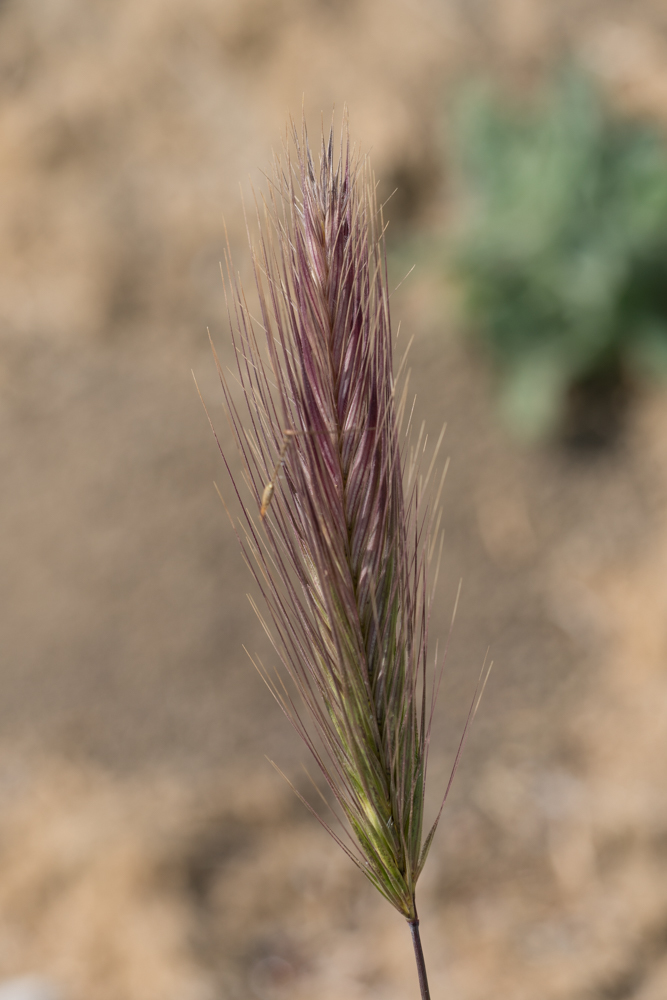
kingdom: Plantae
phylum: Tracheophyta
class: Liliopsida
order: Poales
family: Poaceae
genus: Hordeum
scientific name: Hordeum murinum
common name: Wall barley
